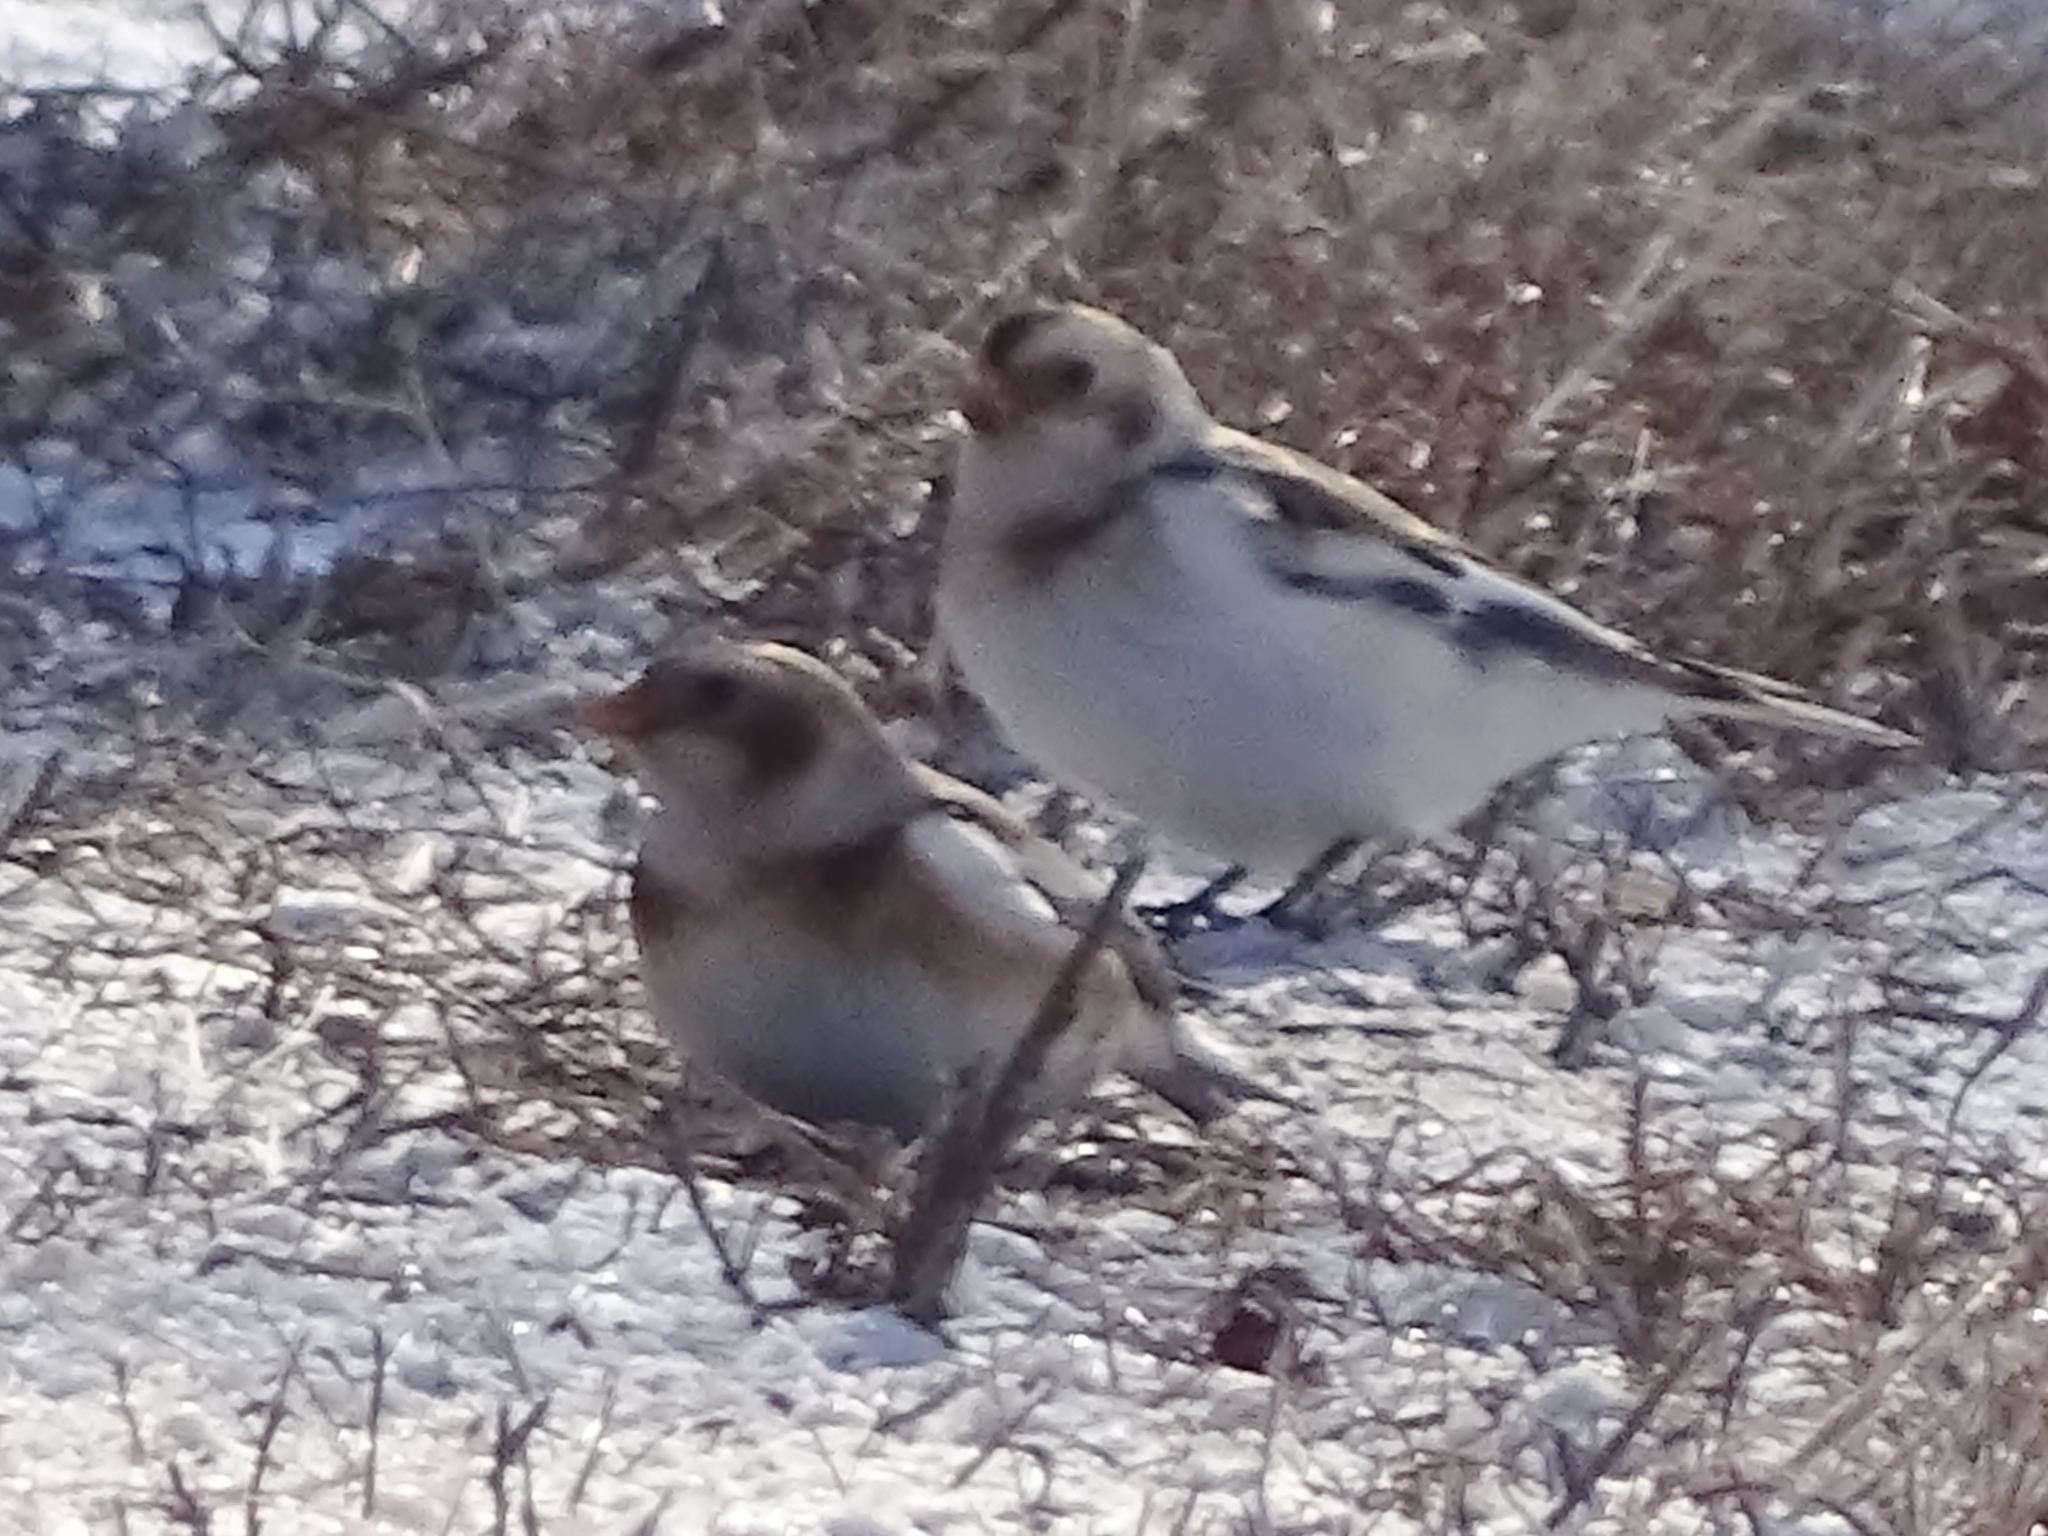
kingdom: Animalia
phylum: Chordata
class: Aves
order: Passeriformes
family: Calcariidae
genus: Plectrophenax
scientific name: Plectrophenax nivalis
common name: Snow bunting
